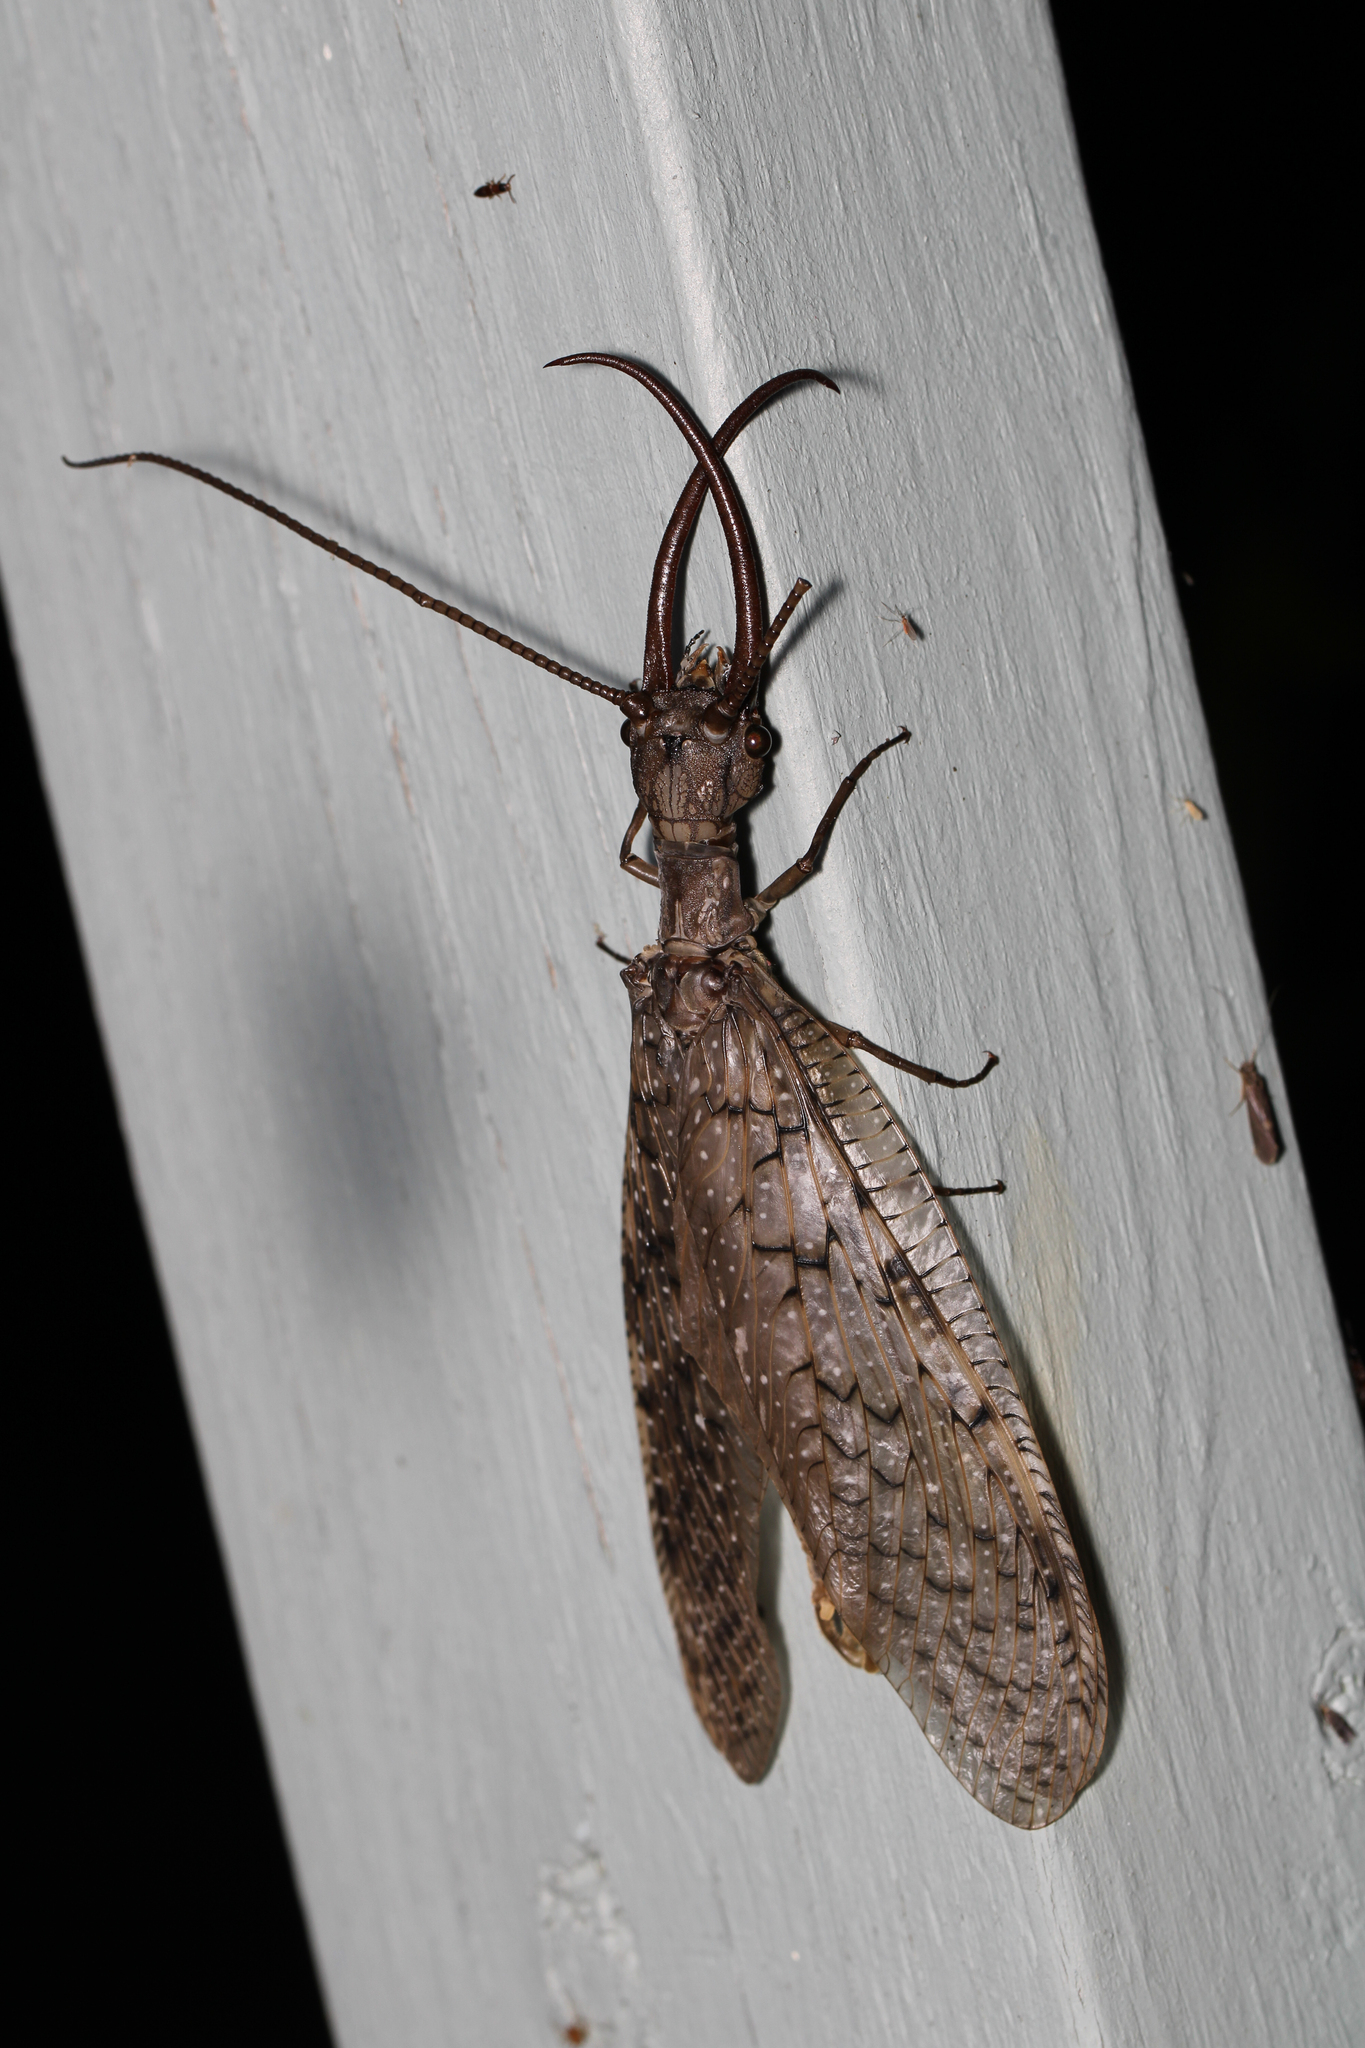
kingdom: Animalia
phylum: Arthropoda
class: Insecta
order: Megaloptera
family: Corydalidae
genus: Corydalus
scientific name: Corydalus cornutus
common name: Dobsonfly
